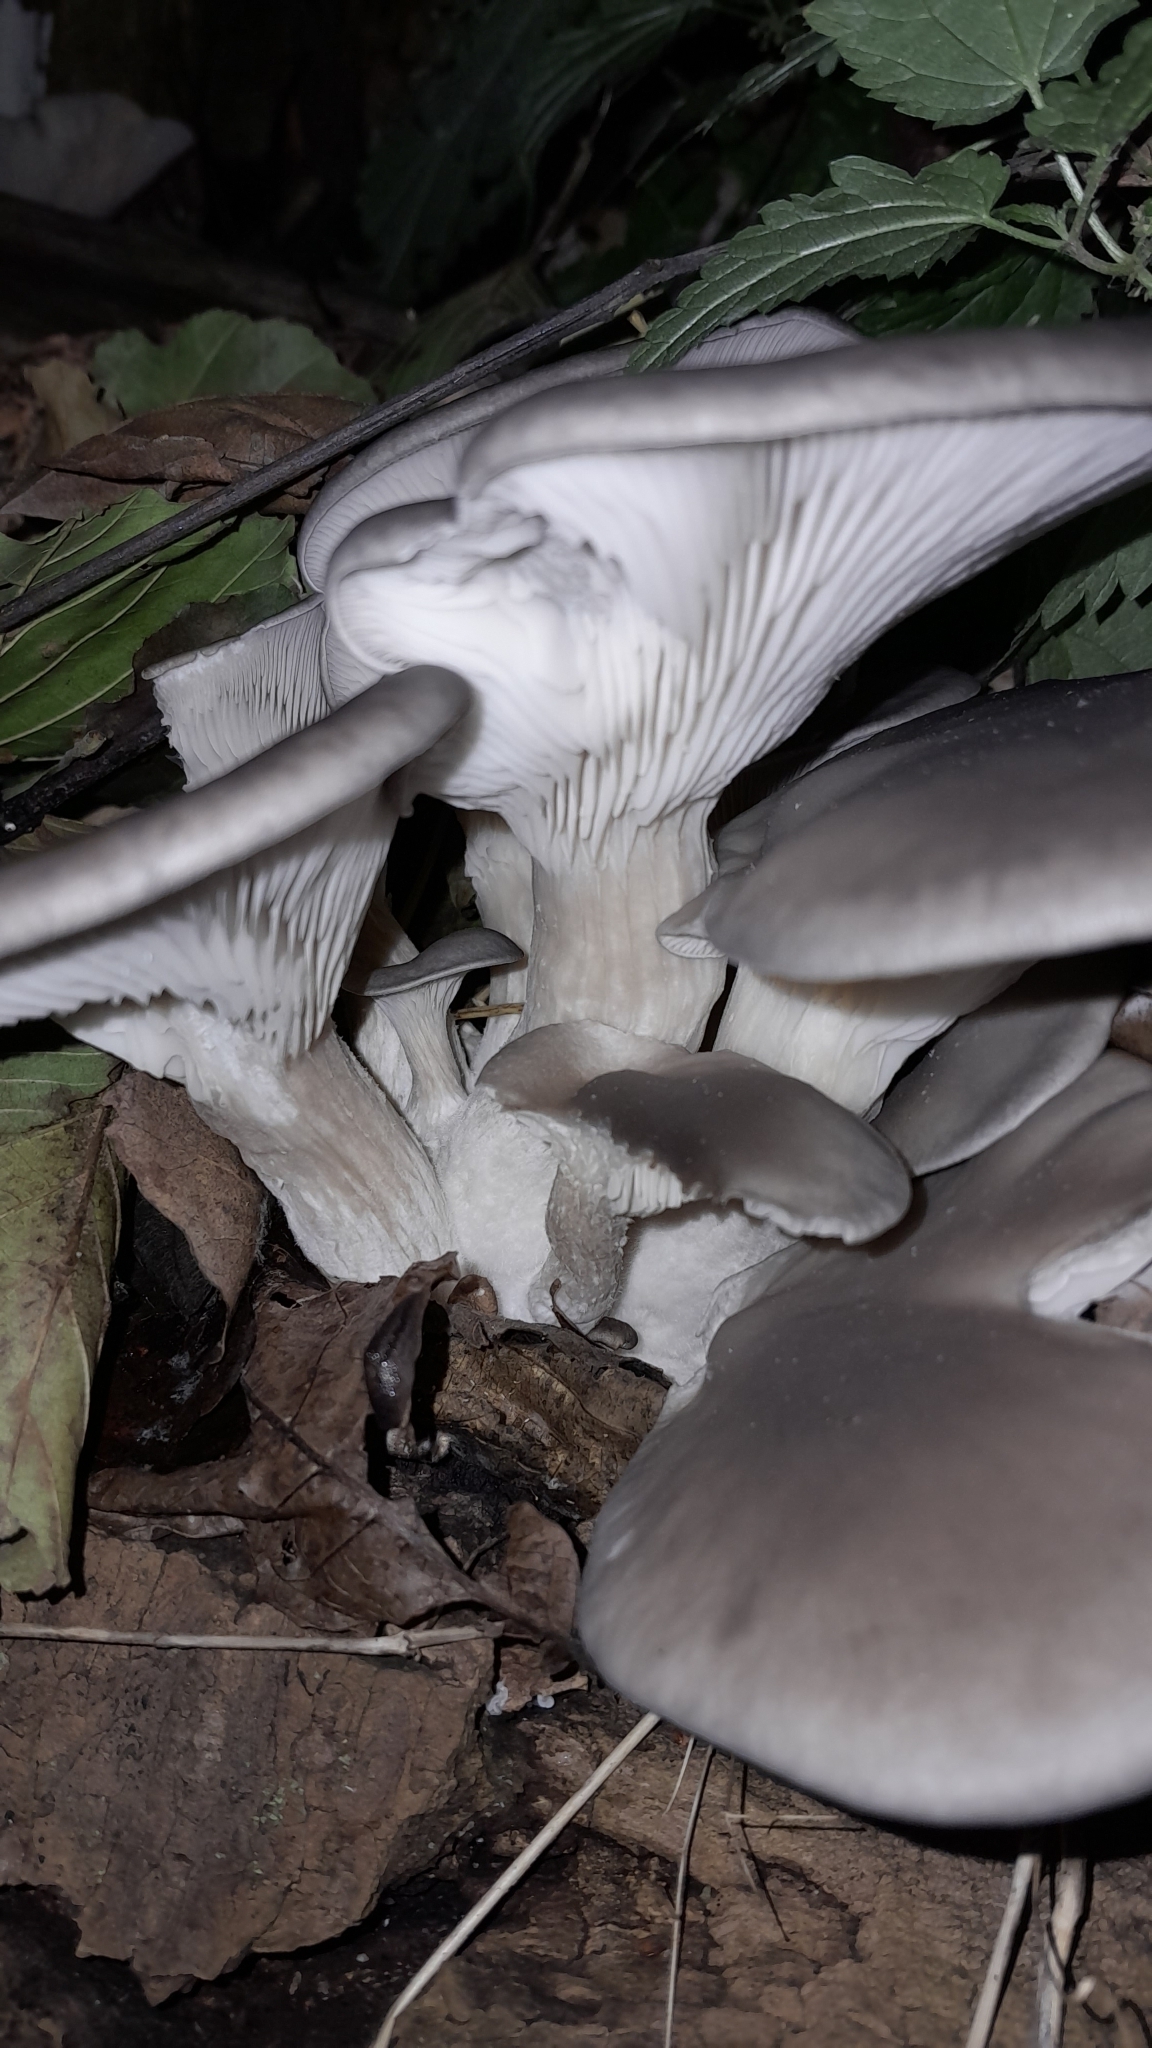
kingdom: Fungi
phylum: Basidiomycota
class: Agaricomycetes
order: Agaricales
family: Pleurotaceae
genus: Pleurotus
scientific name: Pleurotus ostreatus
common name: Oyster mushroom
